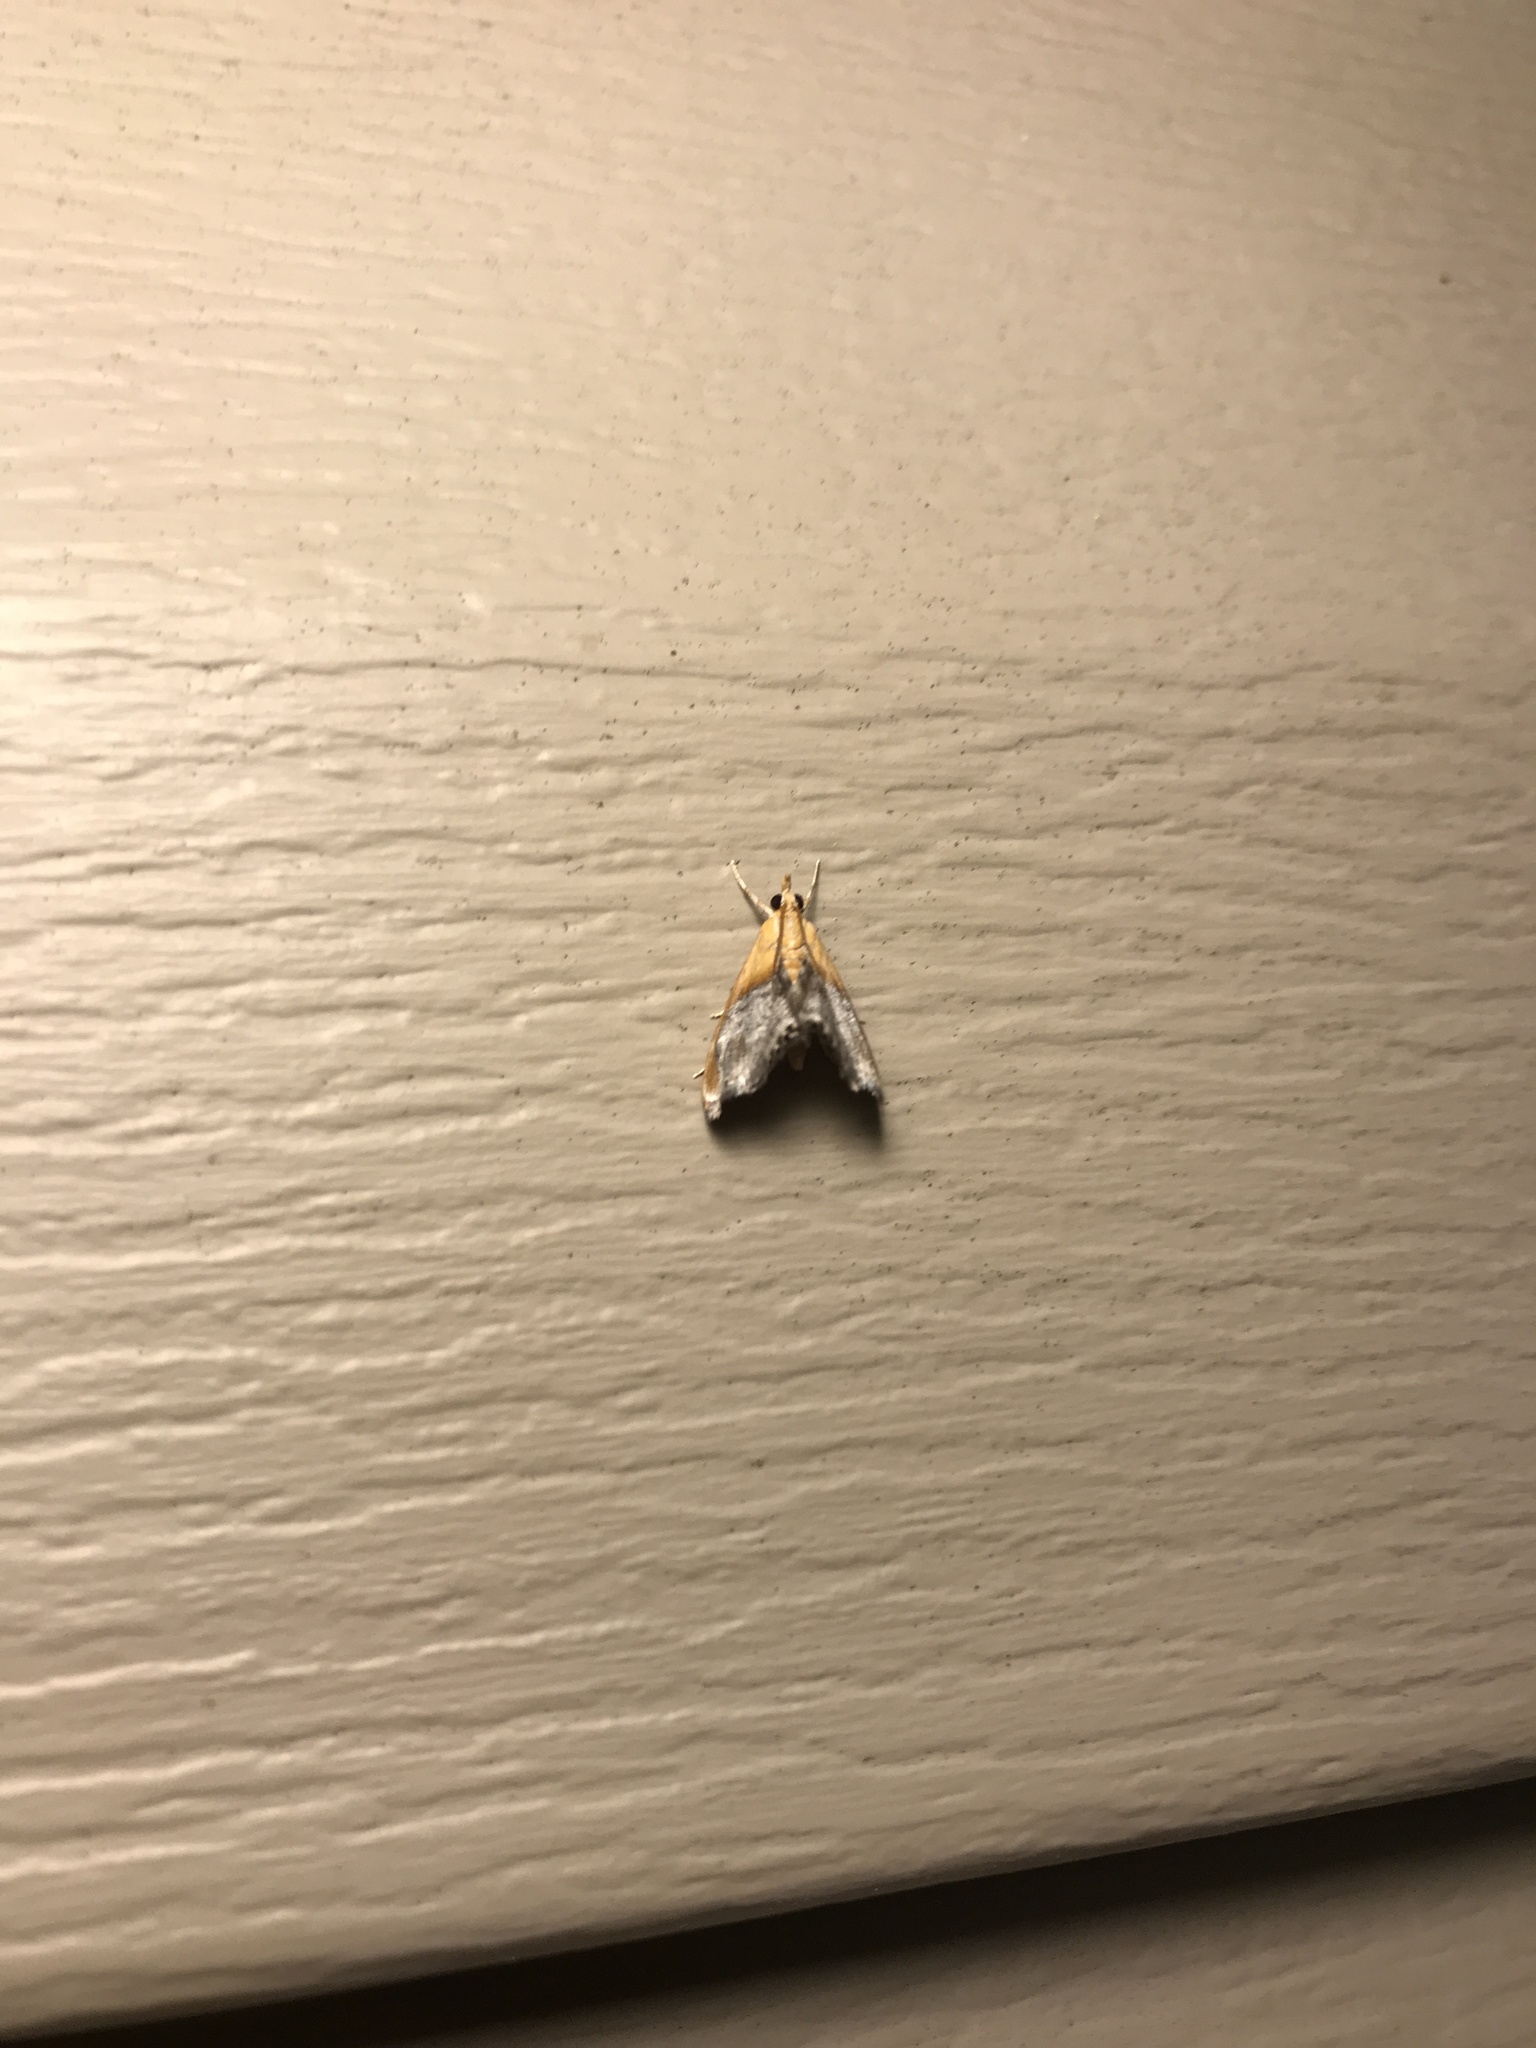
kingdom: Animalia
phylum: Arthropoda
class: Insecta
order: Lepidoptera
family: Crambidae
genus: Chalcoela
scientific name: Chalcoela iphitalis
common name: Sooty-winged chalcoela moth
